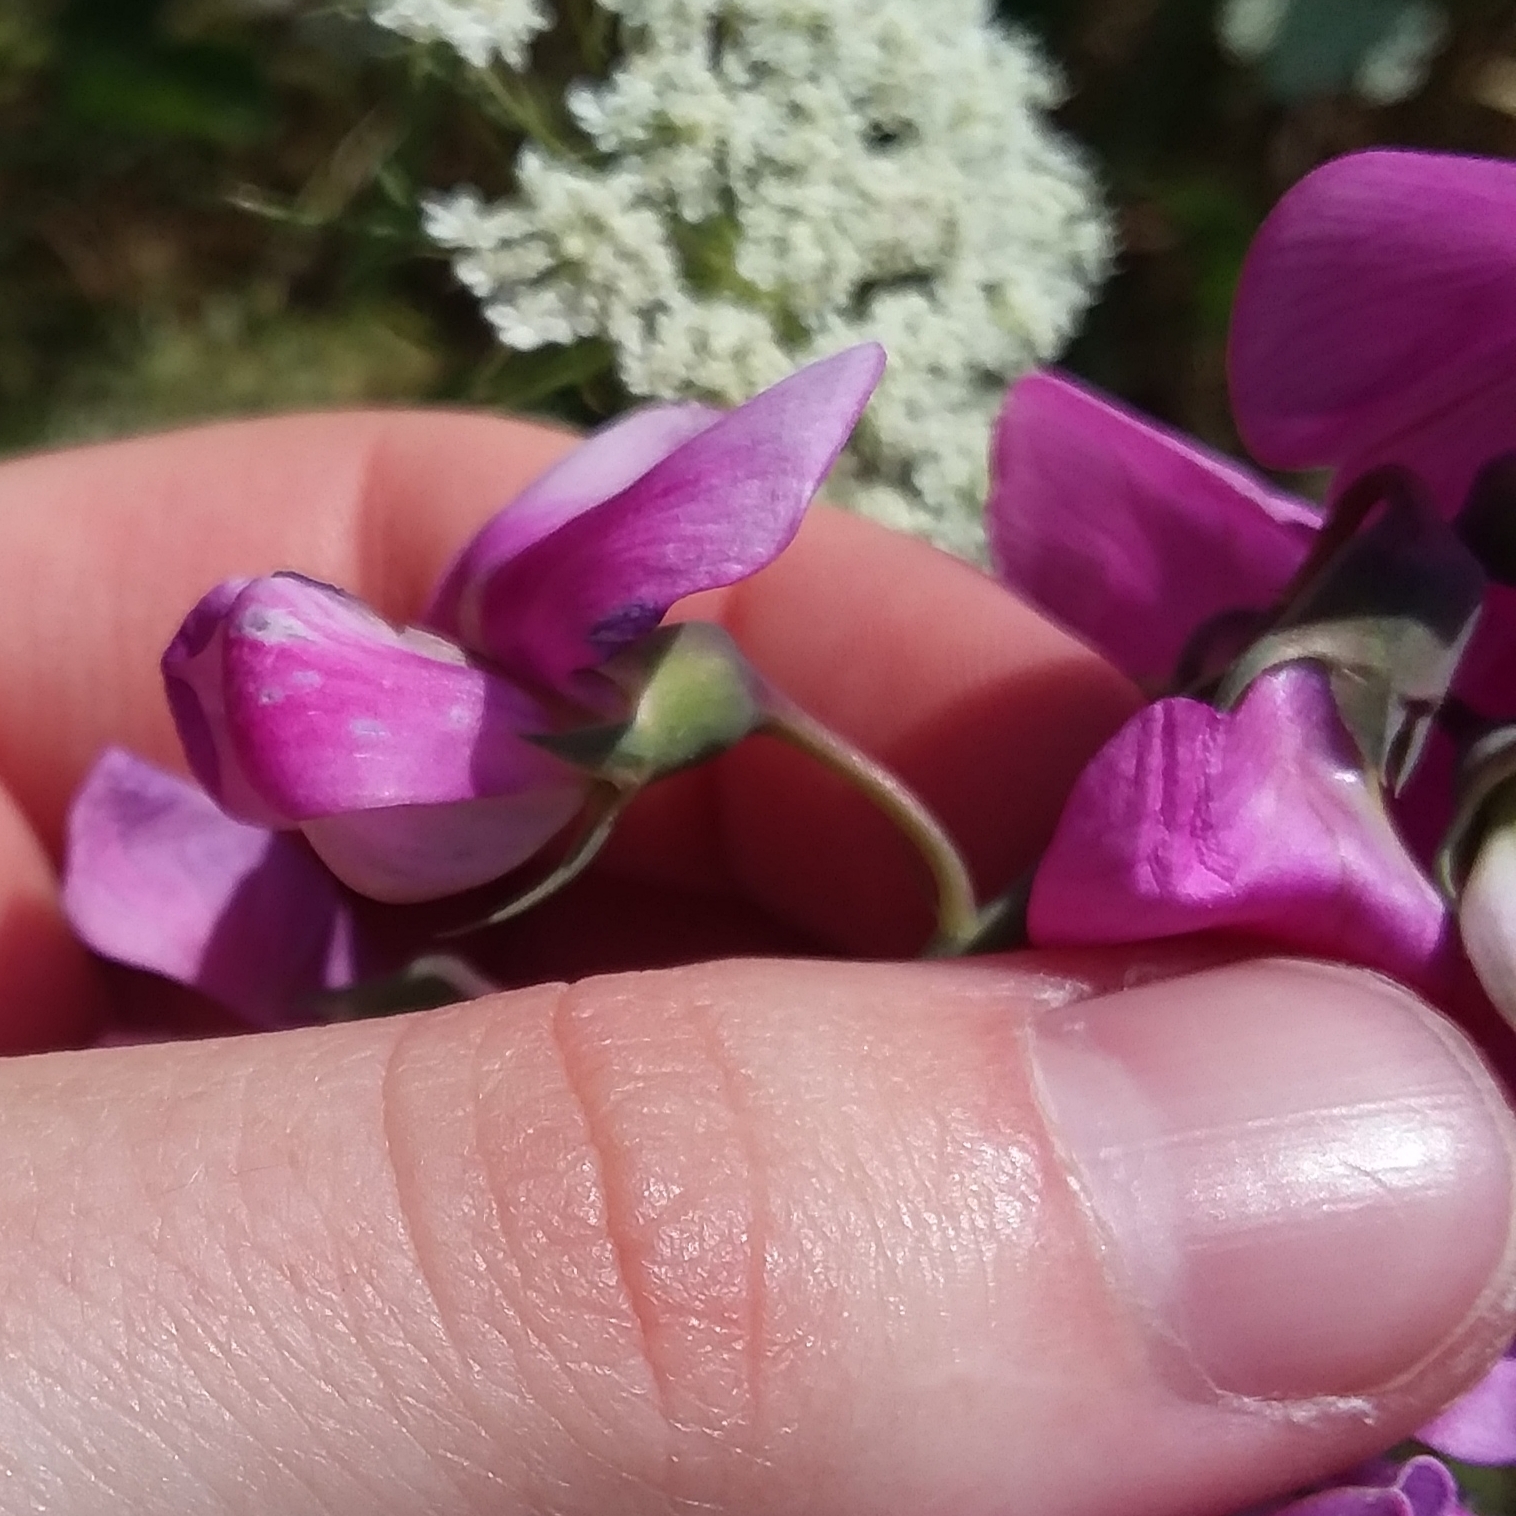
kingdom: Plantae
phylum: Tracheophyta
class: Magnoliopsida
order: Fabales
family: Fabaceae
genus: Lathyrus
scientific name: Lathyrus latifolius
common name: Perennial pea
